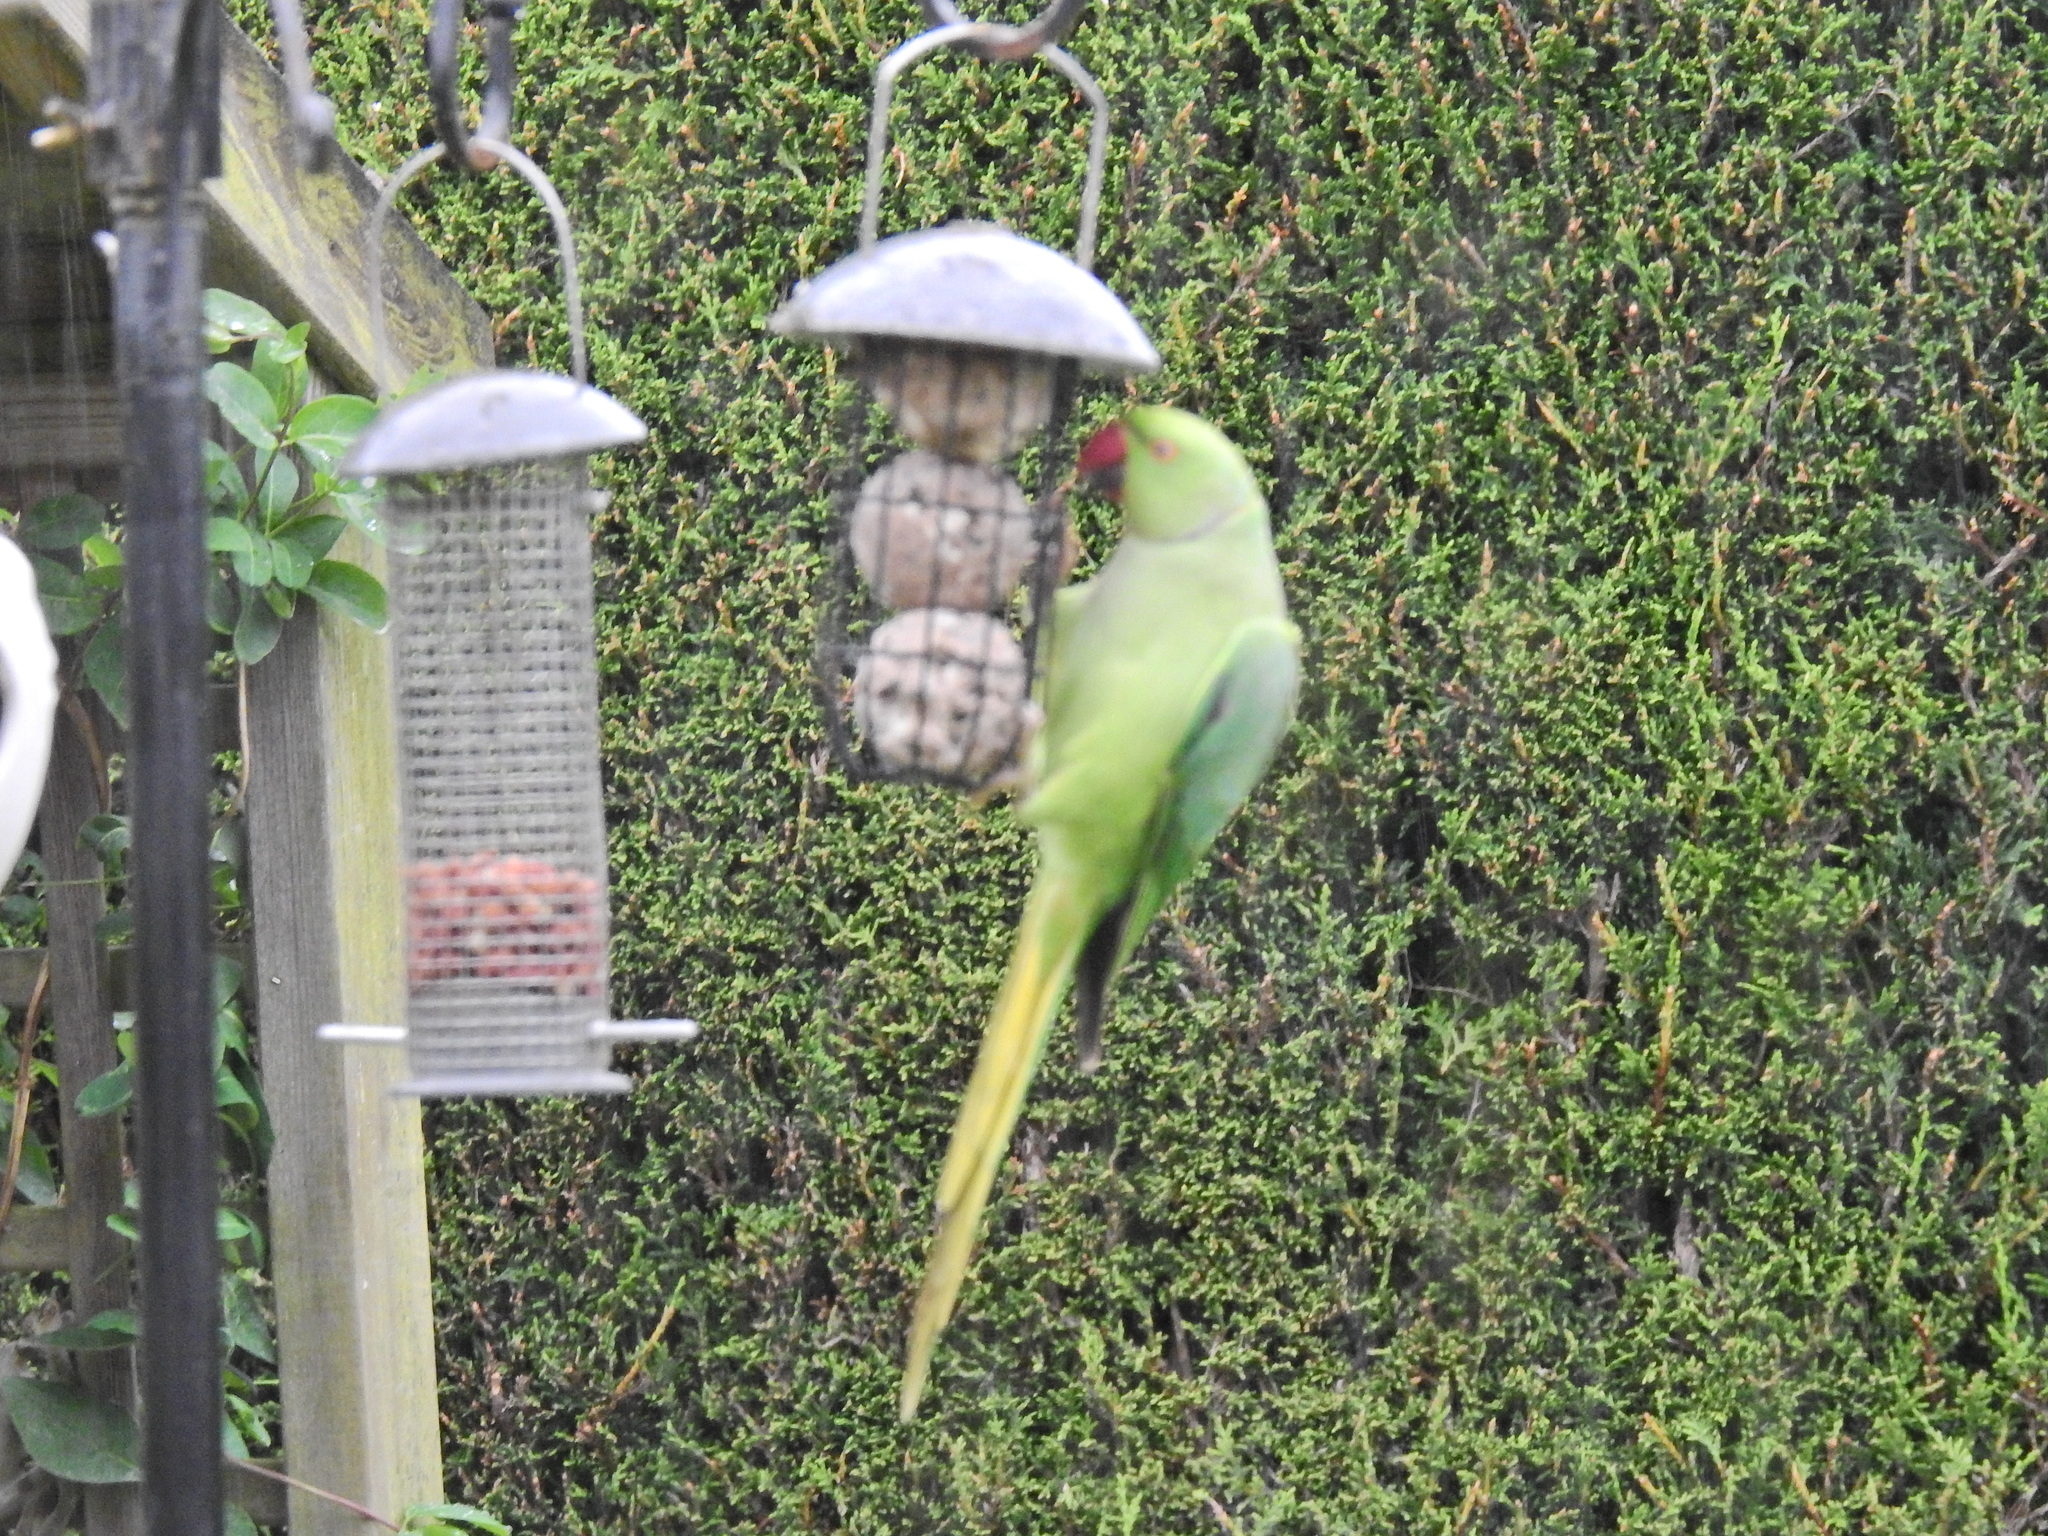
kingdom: Animalia
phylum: Chordata
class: Aves
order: Psittaciformes
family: Psittacidae
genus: Psittacula
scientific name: Psittacula krameri
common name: Rose-ringed parakeet
